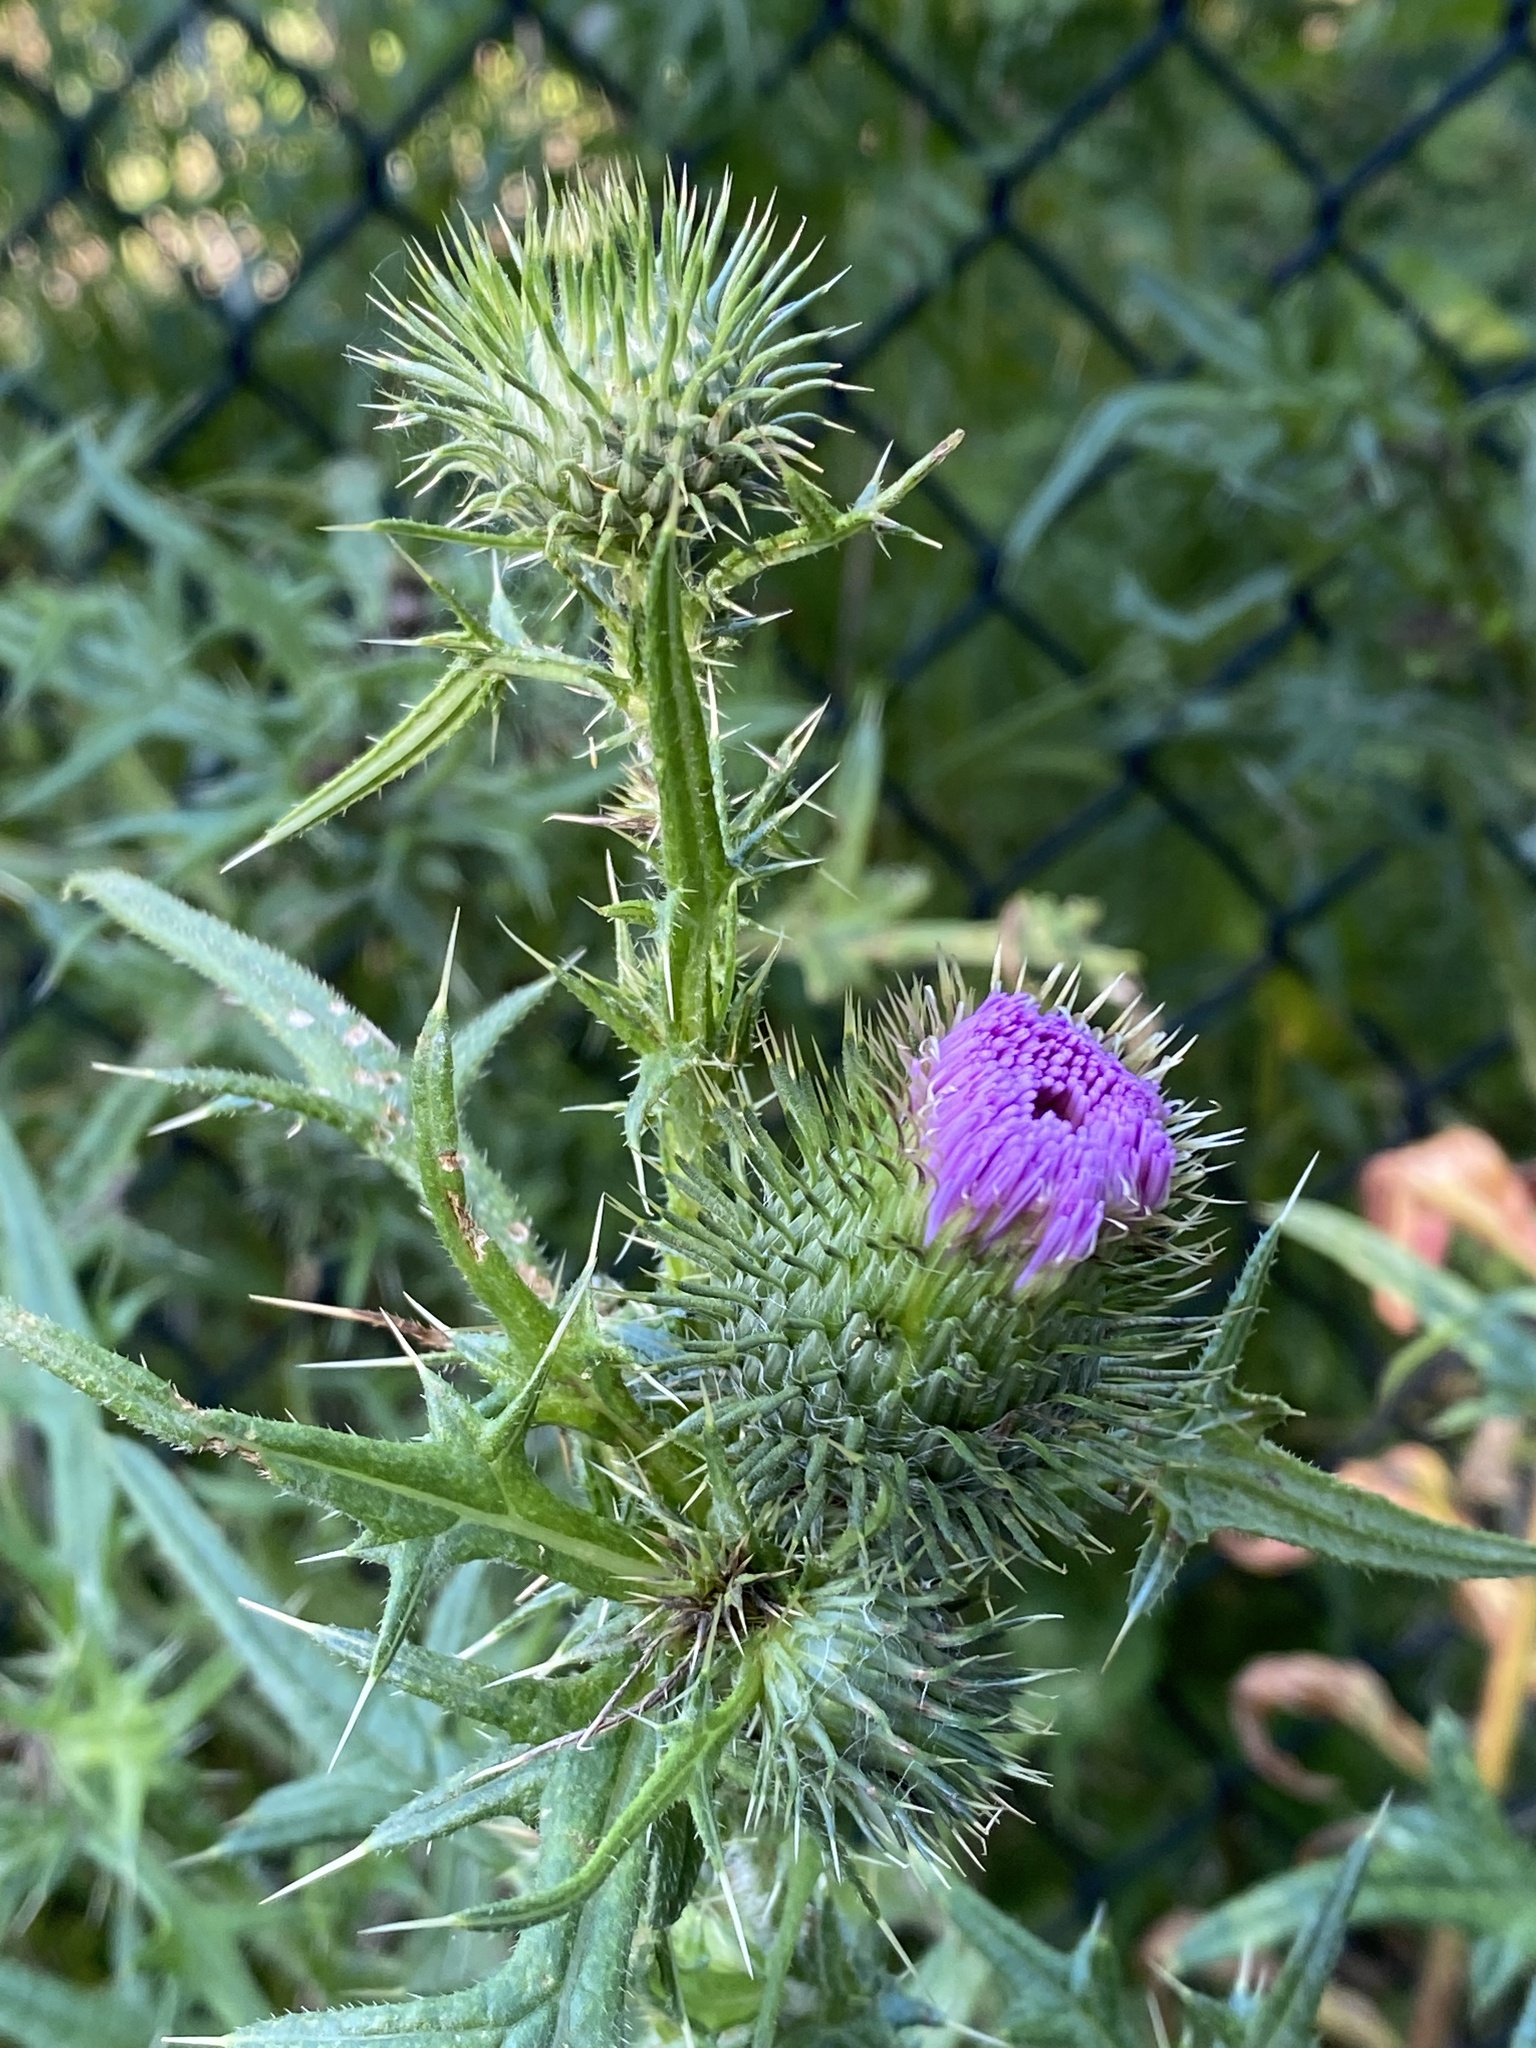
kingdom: Plantae
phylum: Tracheophyta
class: Magnoliopsida
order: Asterales
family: Asteraceae
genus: Cirsium
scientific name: Cirsium vulgare
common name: Bull thistle
